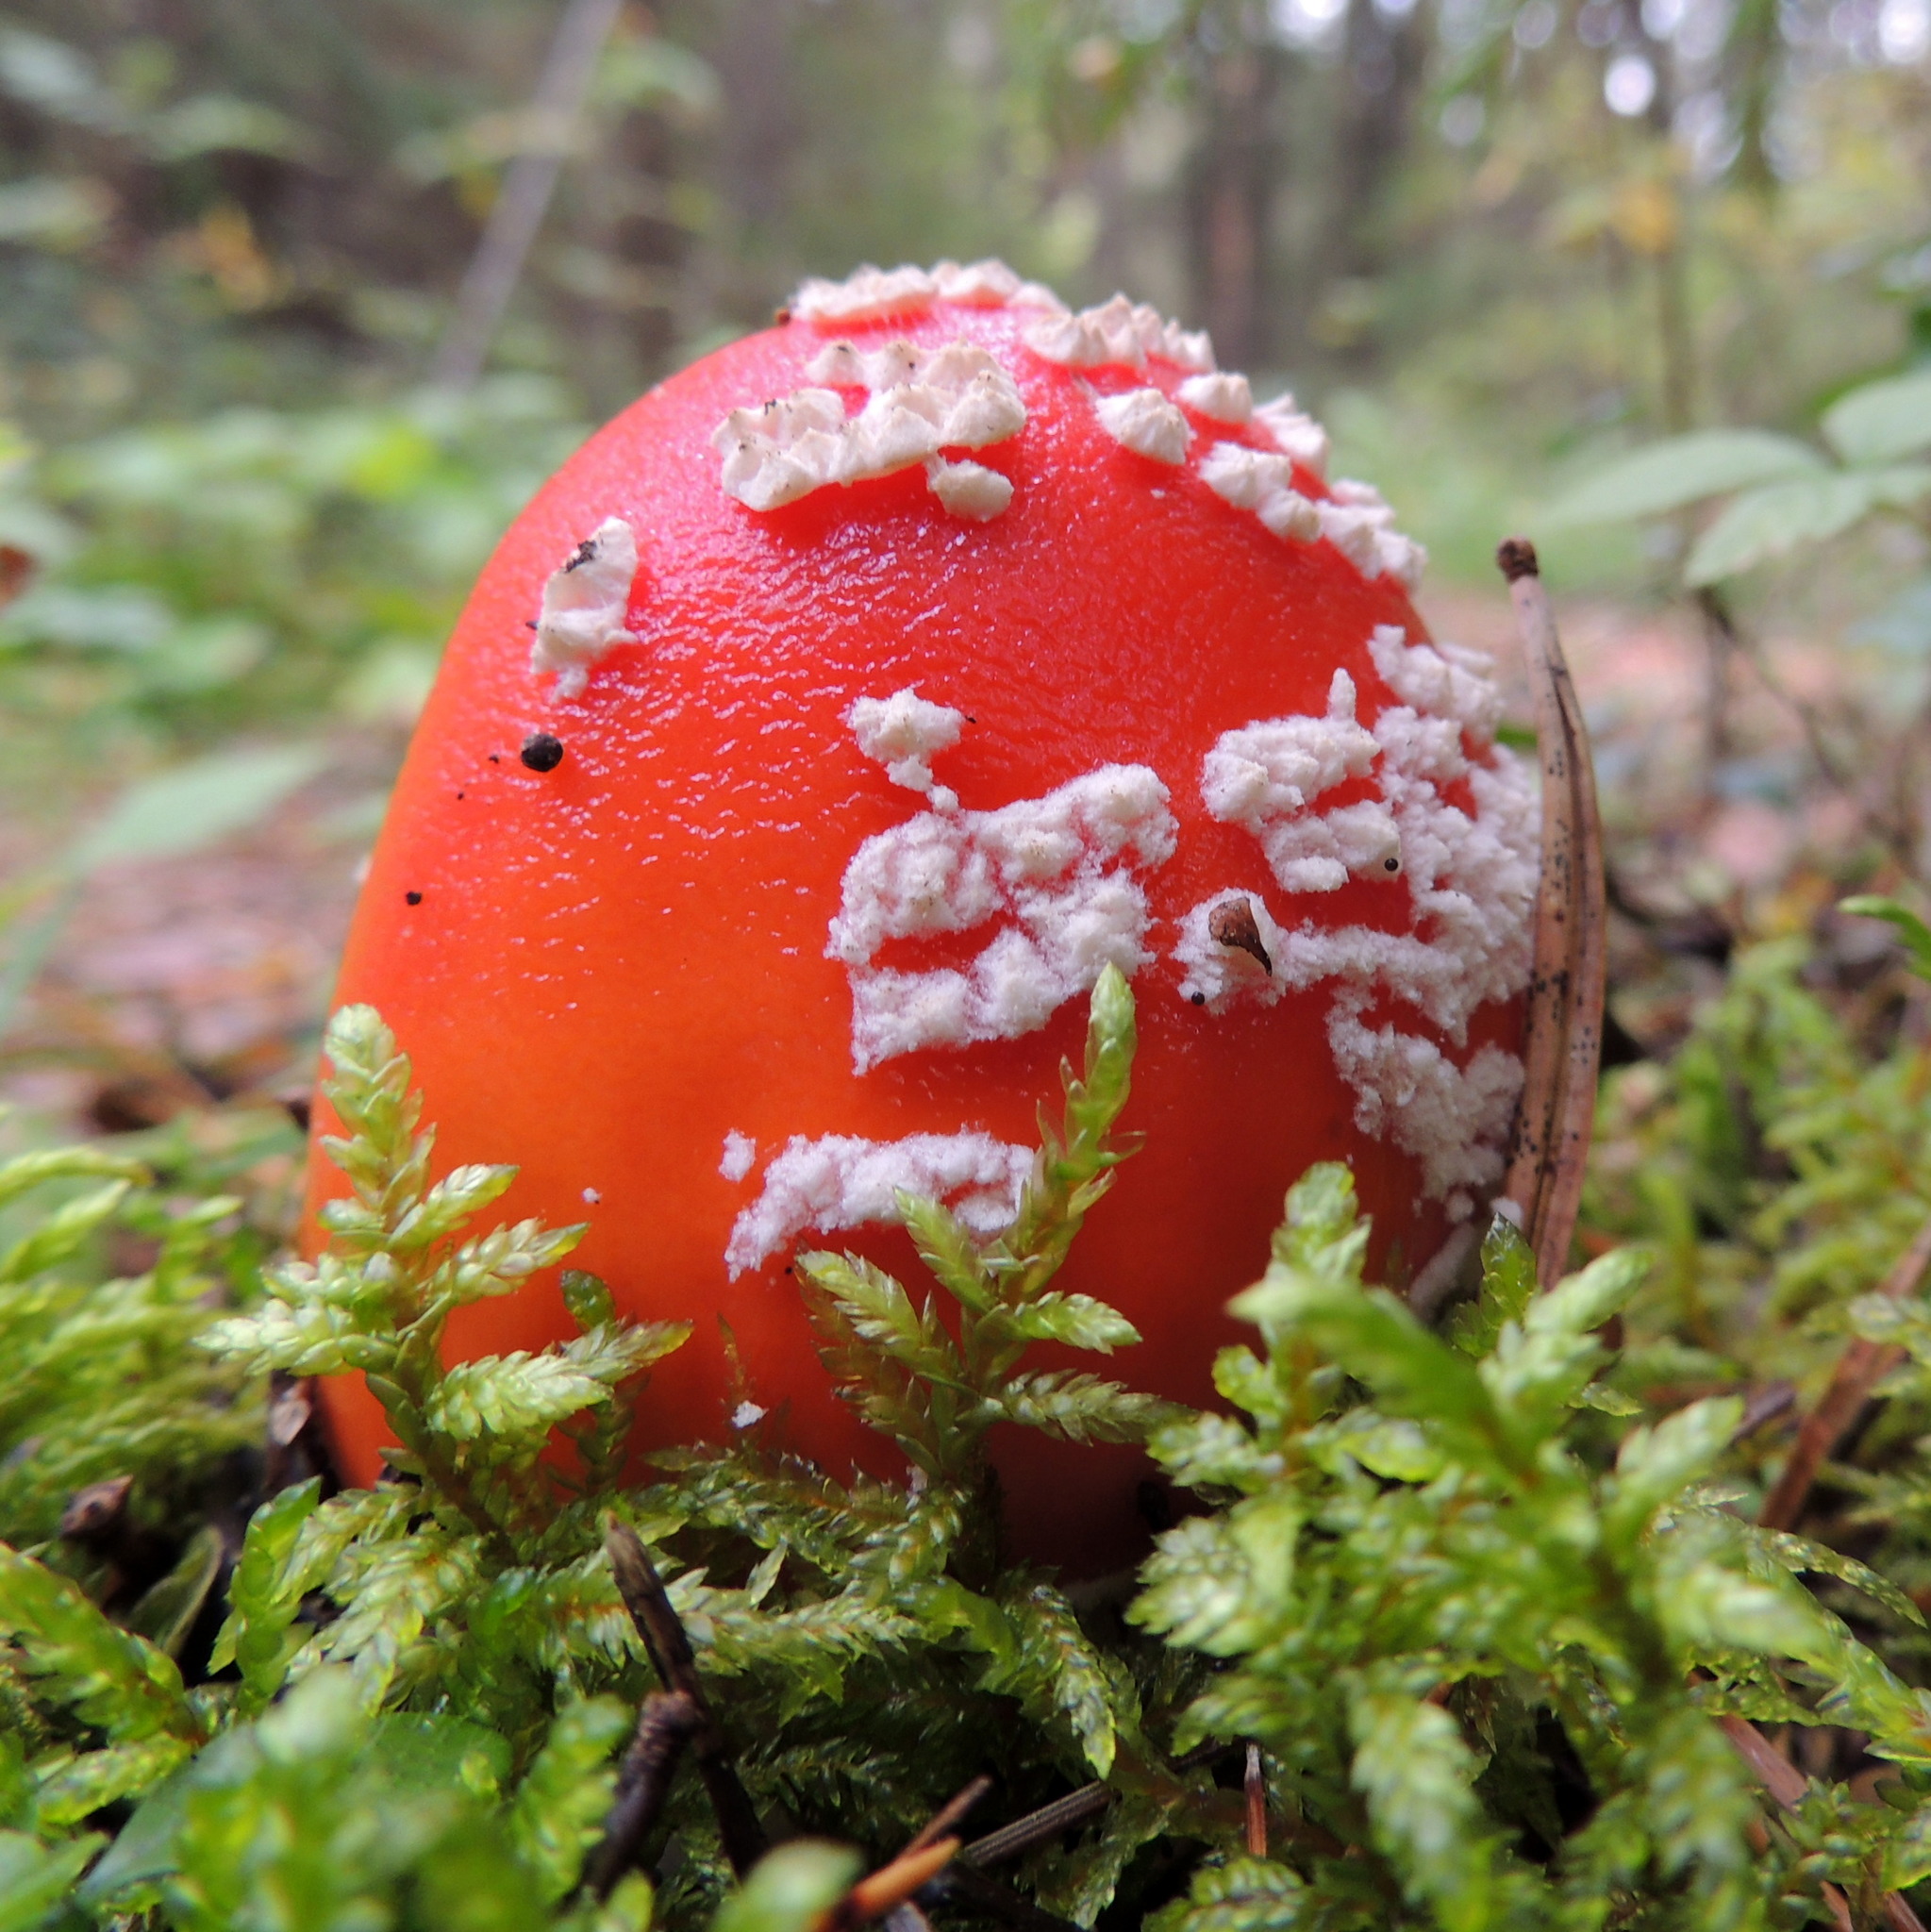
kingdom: Fungi
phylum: Basidiomycota
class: Agaricomycetes
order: Agaricales
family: Amanitaceae
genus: Amanita
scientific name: Amanita muscaria
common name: Fly agaric
